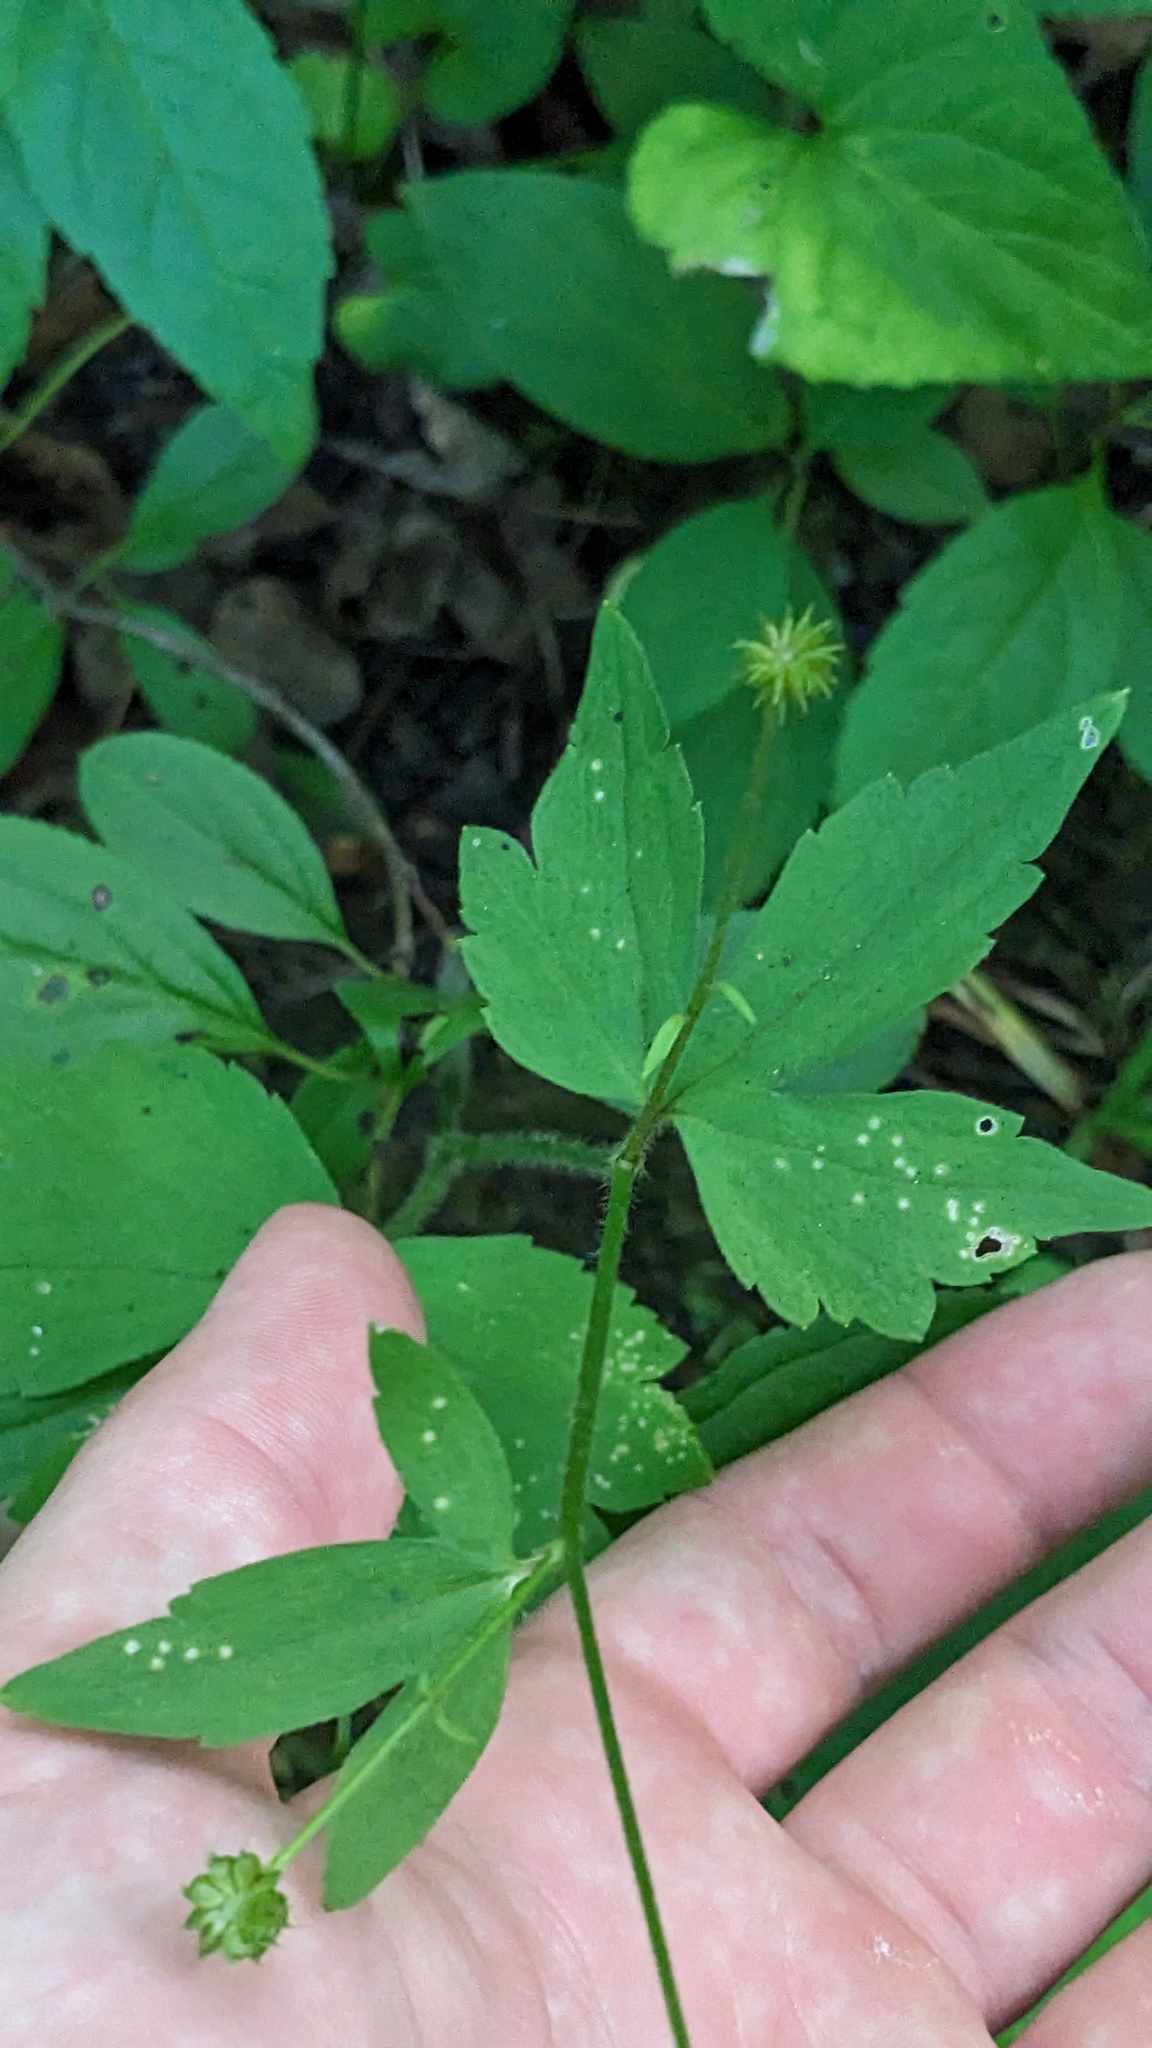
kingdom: Plantae
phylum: Tracheophyta
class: Magnoliopsida
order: Ranunculales
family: Ranunculaceae
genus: Ranunculus
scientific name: Ranunculus recurvatus
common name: Blisterwort
